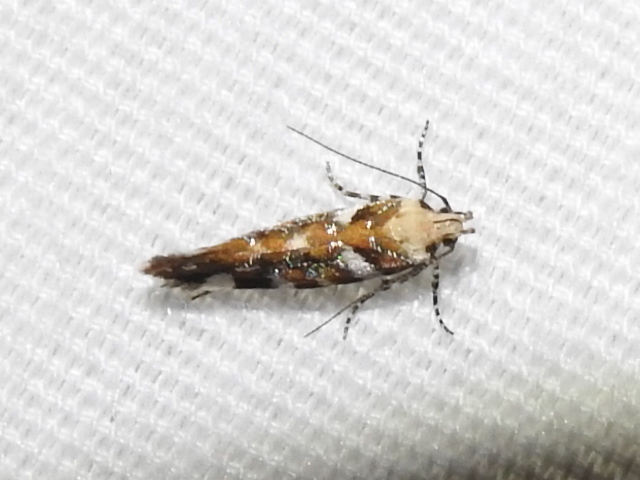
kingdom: Animalia
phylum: Arthropoda
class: Insecta
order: Lepidoptera
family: Gelechiidae
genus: Aristotelia
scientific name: Aristotelia arenella
